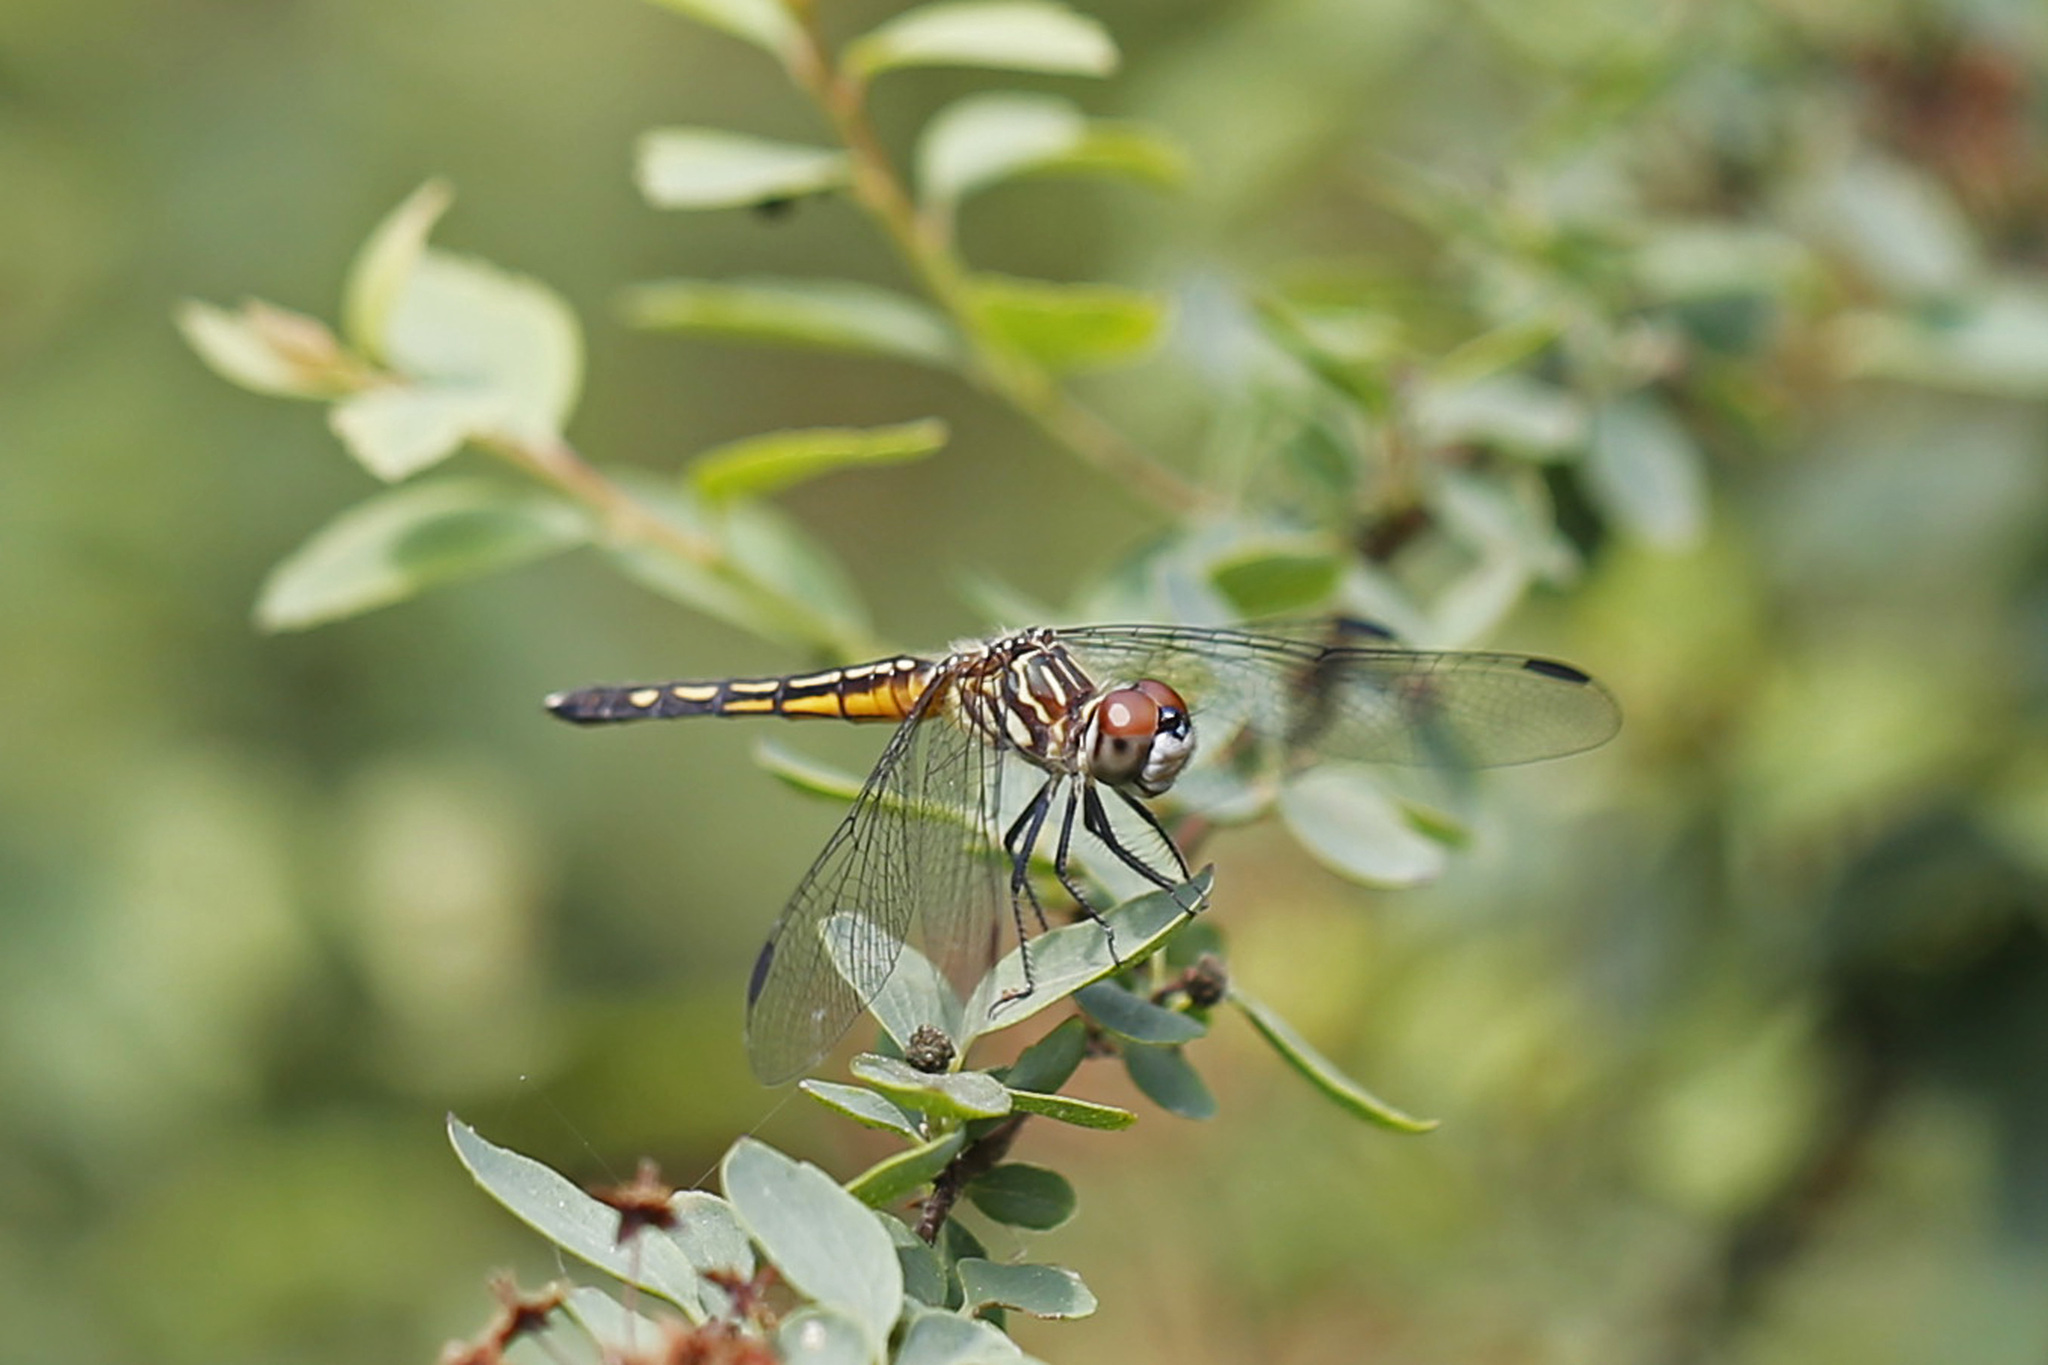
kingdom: Animalia
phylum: Arthropoda
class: Insecta
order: Odonata
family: Libellulidae
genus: Pachydiplax
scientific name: Pachydiplax longipennis
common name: Blue dasher
